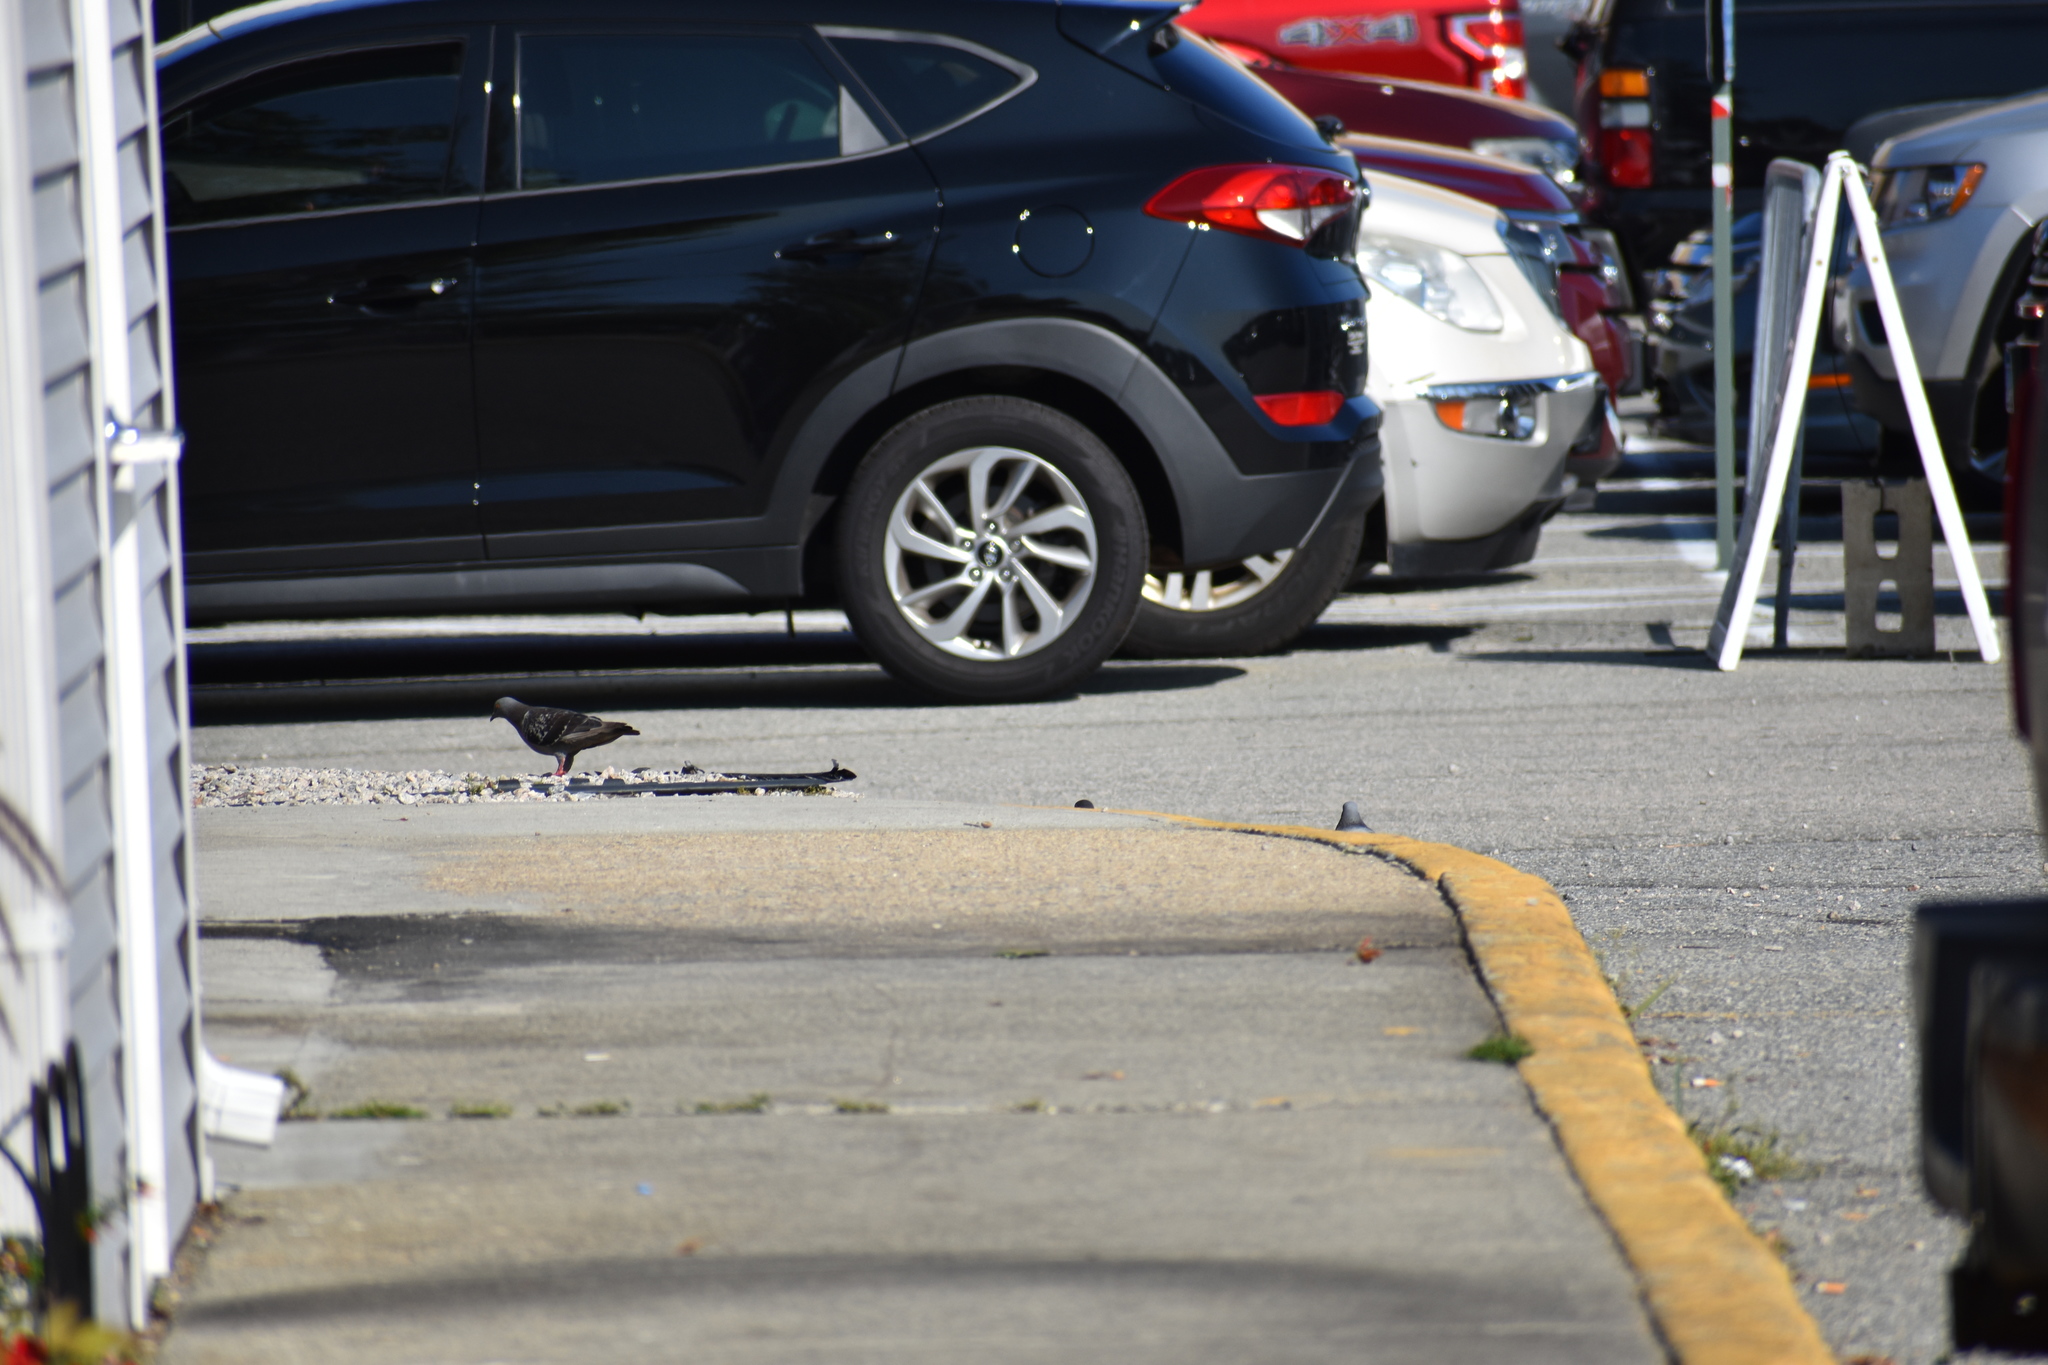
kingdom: Animalia
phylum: Chordata
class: Aves
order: Columbiformes
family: Columbidae
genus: Columba
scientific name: Columba livia
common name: Rock pigeon
